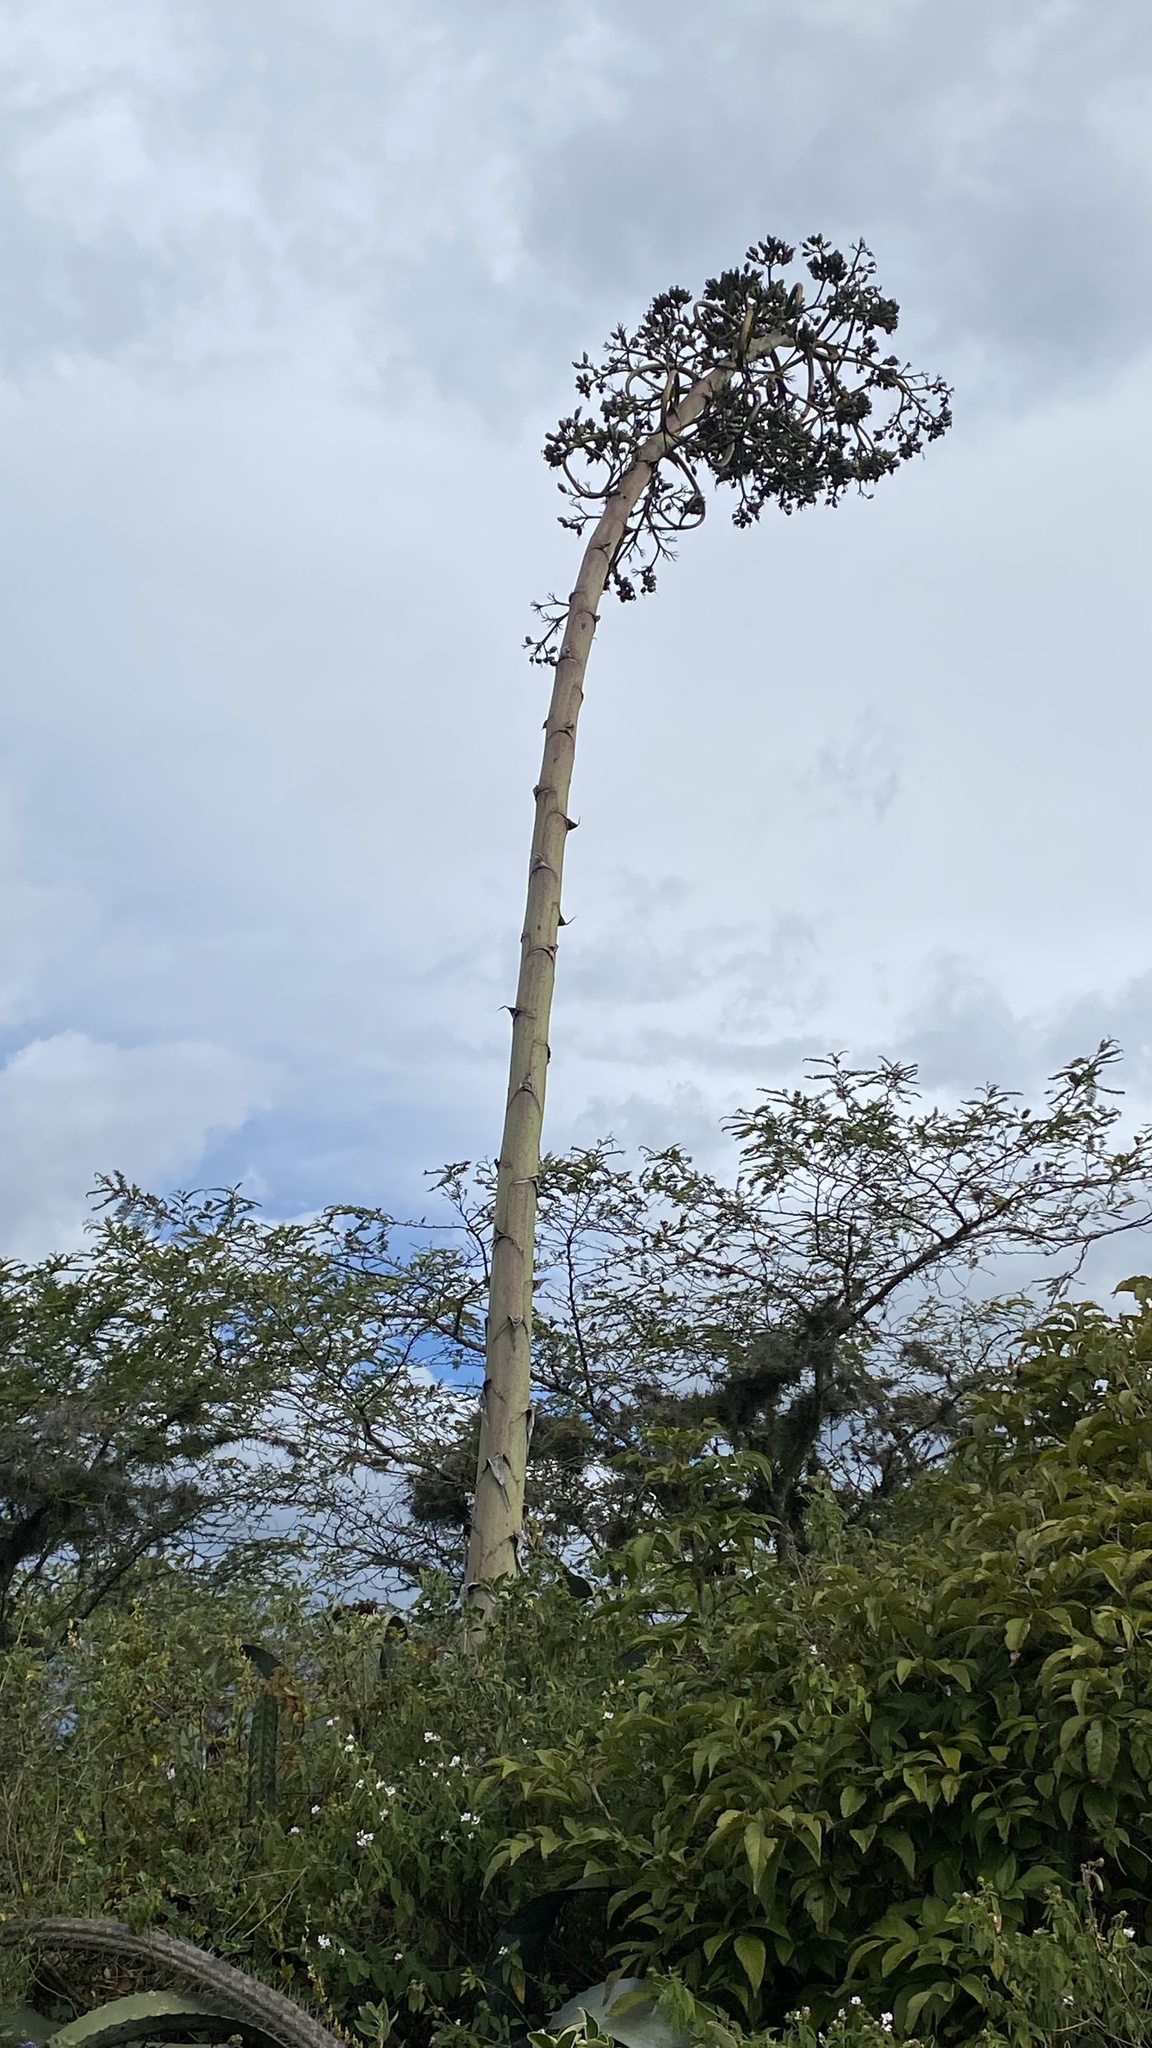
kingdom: Plantae
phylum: Tracheophyta
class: Liliopsida
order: Asparagales
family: Asparagaceae
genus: Agave
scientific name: Agave americana
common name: Centuryplant
